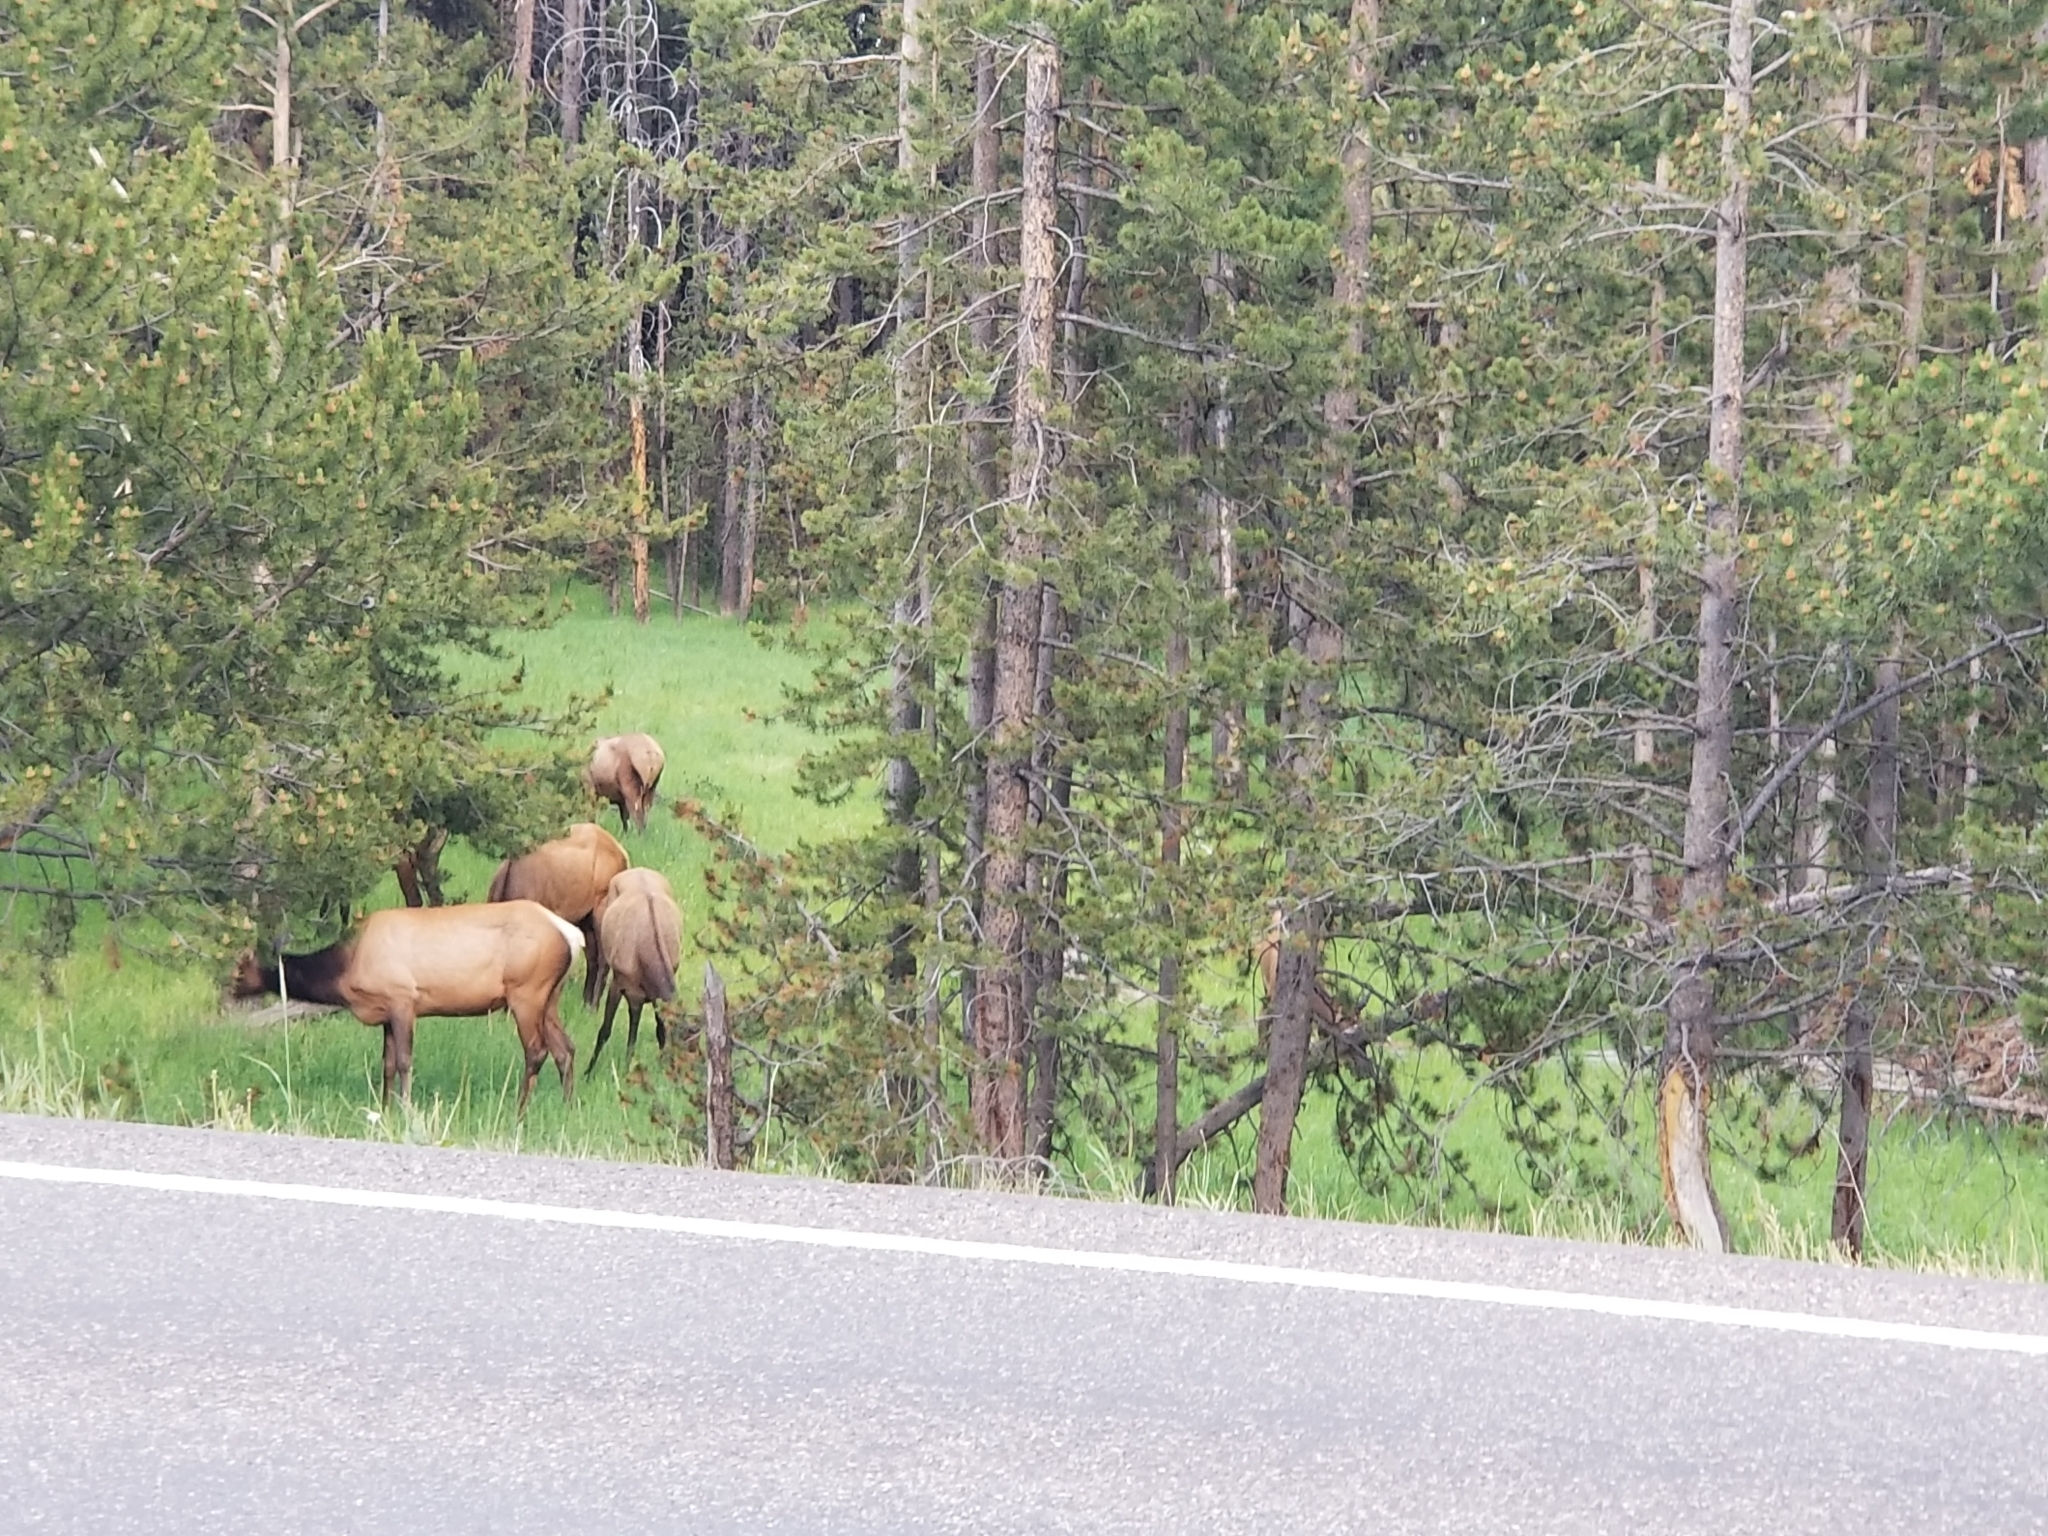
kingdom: Animalia
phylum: Chordata
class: Mammalia
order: Artiodactyla
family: Cervidae
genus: Cervus
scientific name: Cervus elaphus
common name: Red deer
